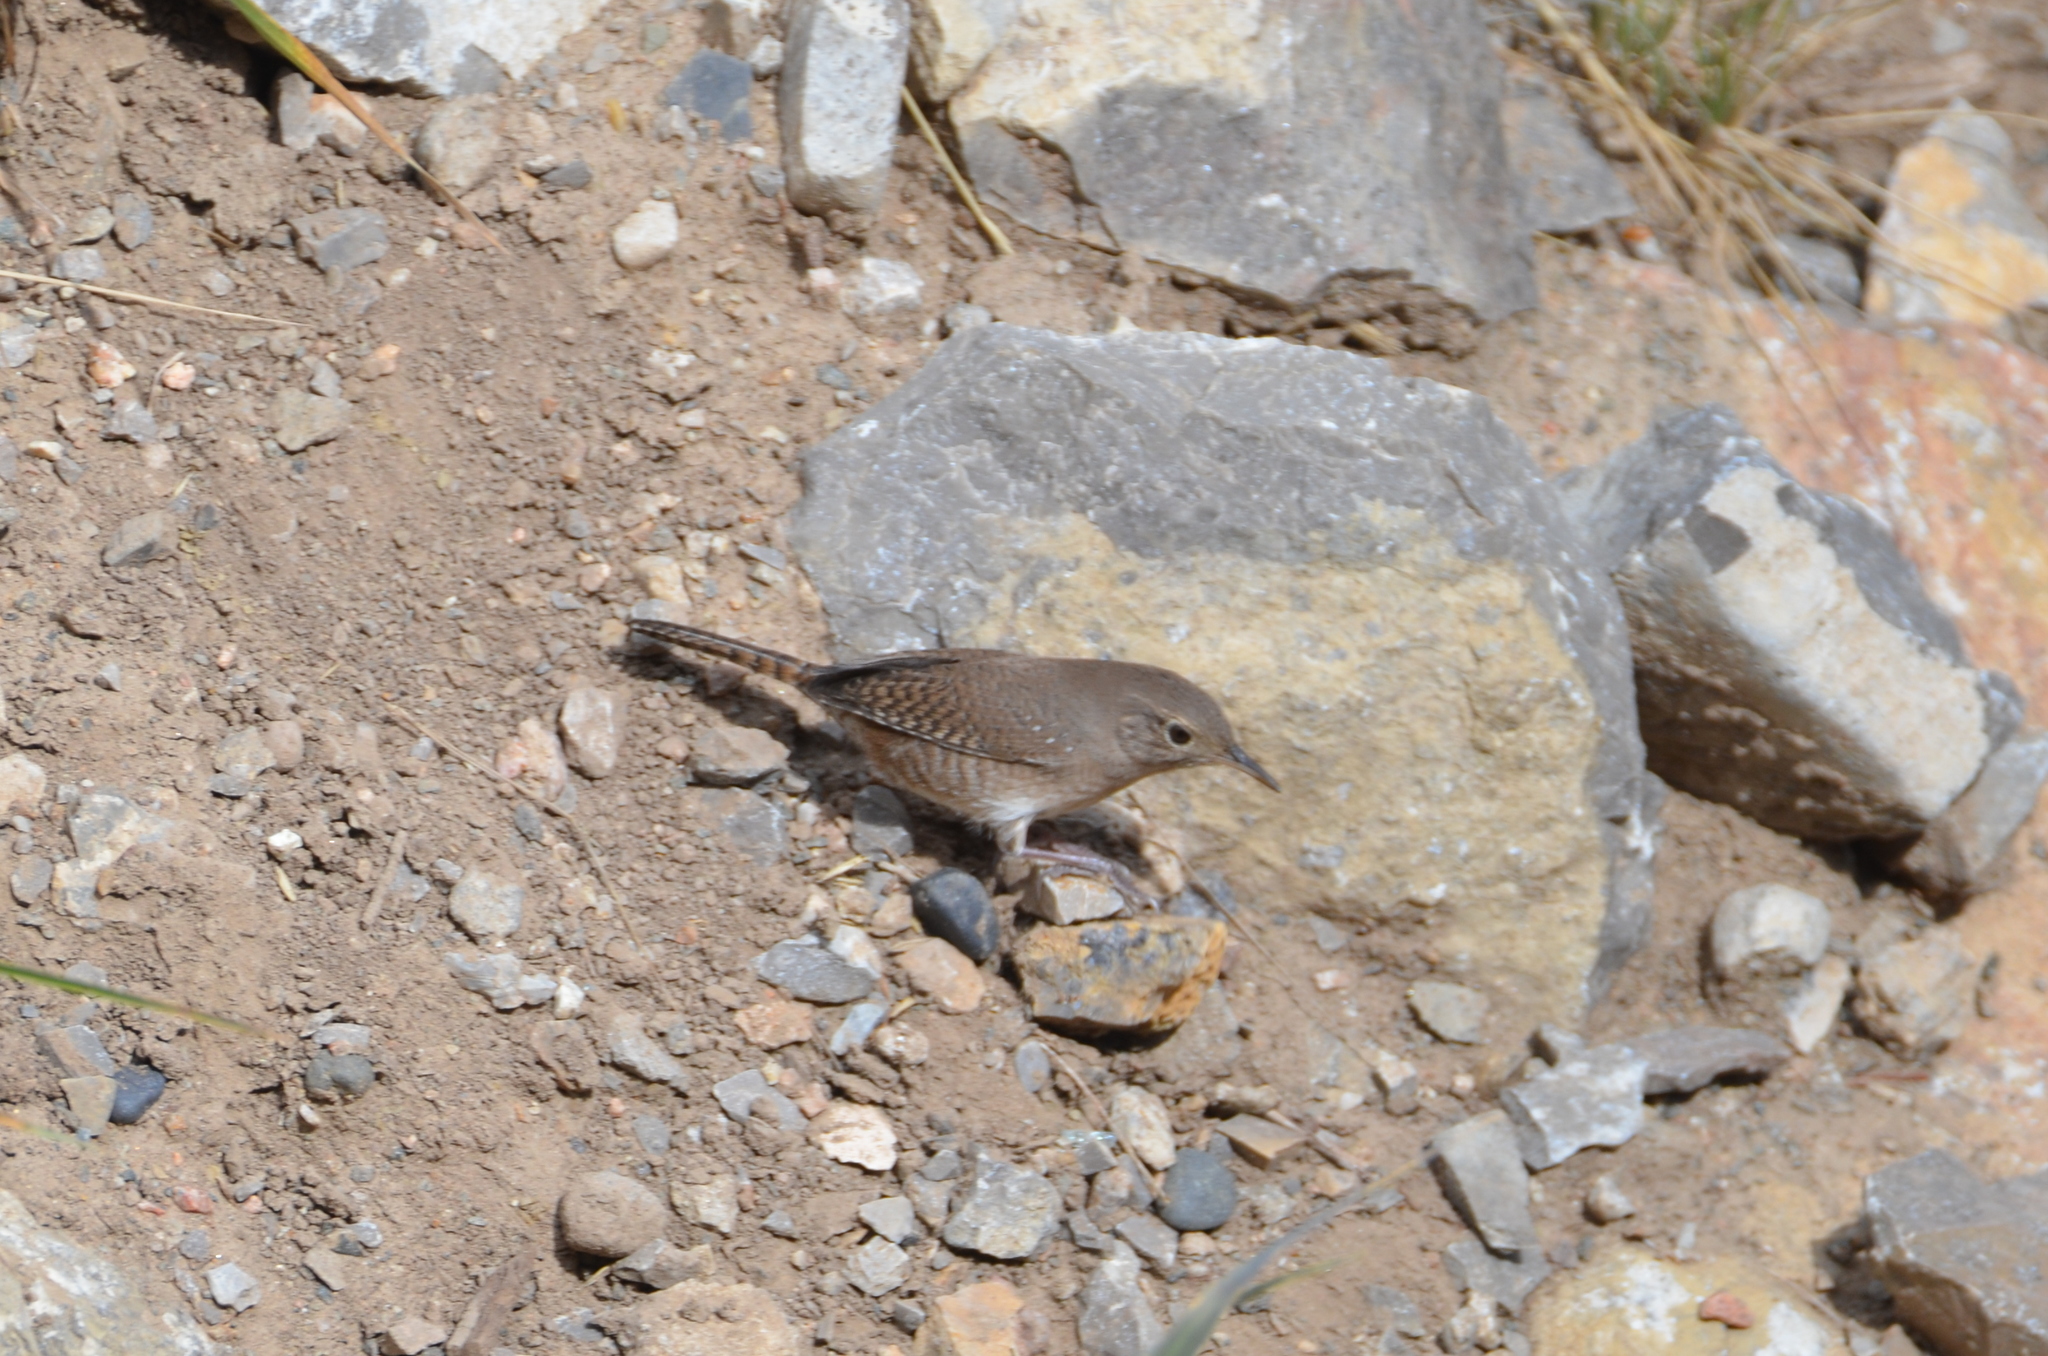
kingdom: Animalia
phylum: Chordata
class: Aves
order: Passeriformes
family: Troglodytidae
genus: Troglodytes
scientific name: Troglodytes aedon
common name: House wren
